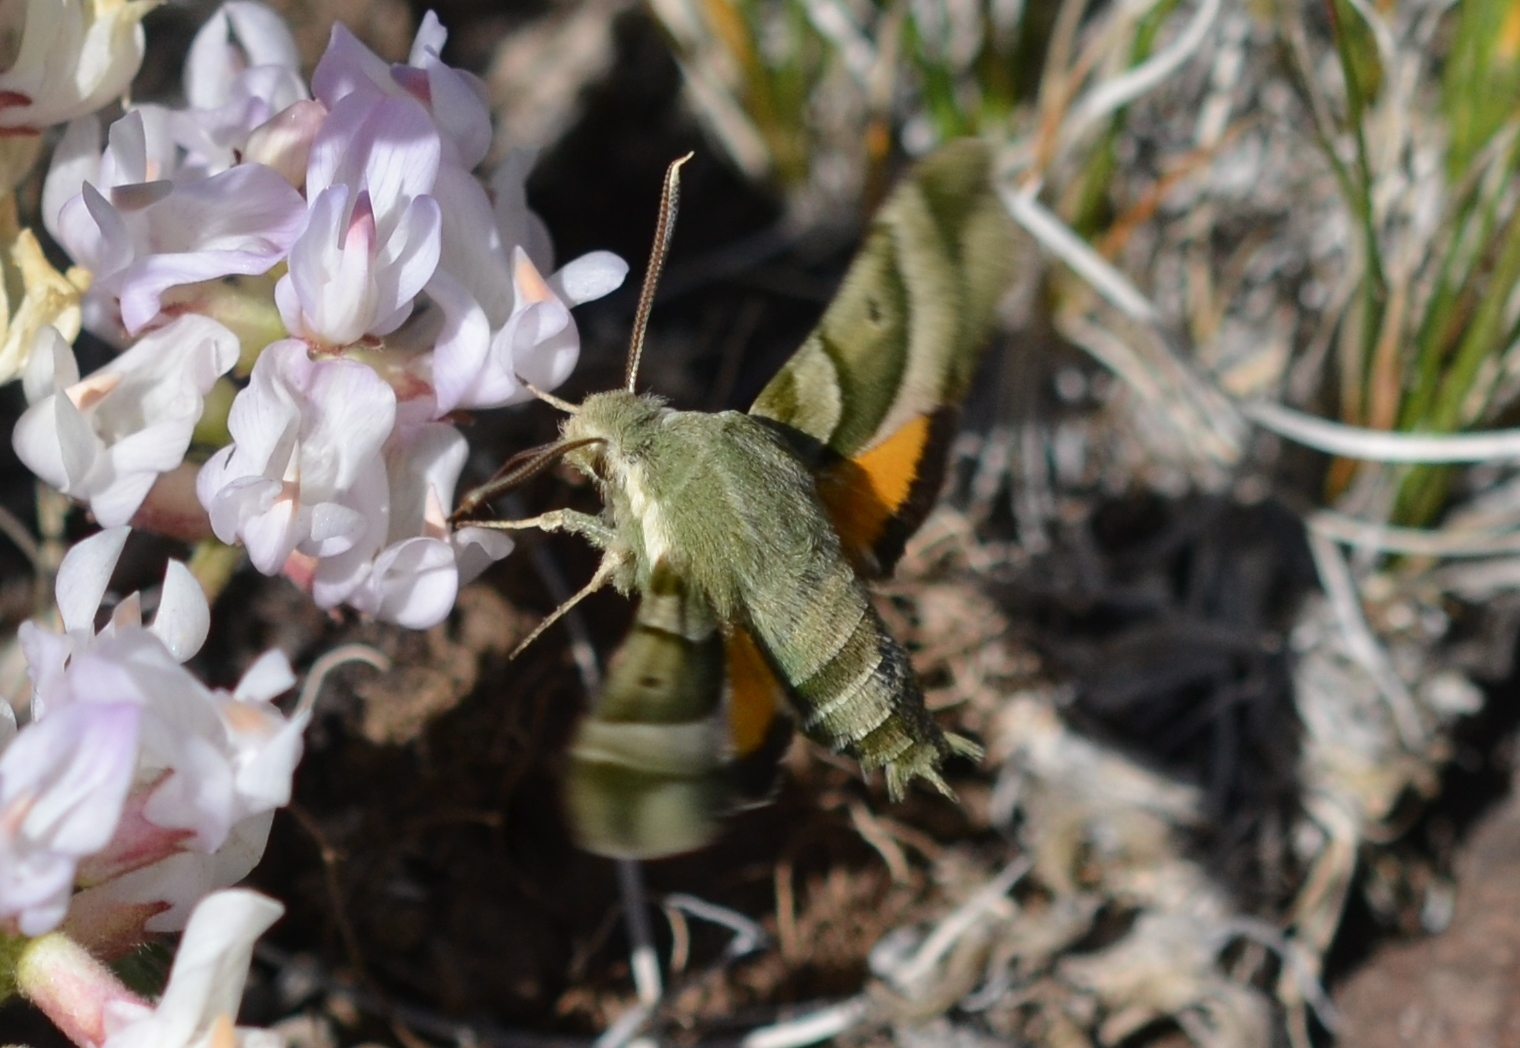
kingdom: Animalia
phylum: Arthropoda
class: Insecta
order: Lepidoptera
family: Sphingidae
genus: Proserpinus
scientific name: Proserpinus clarkiae
